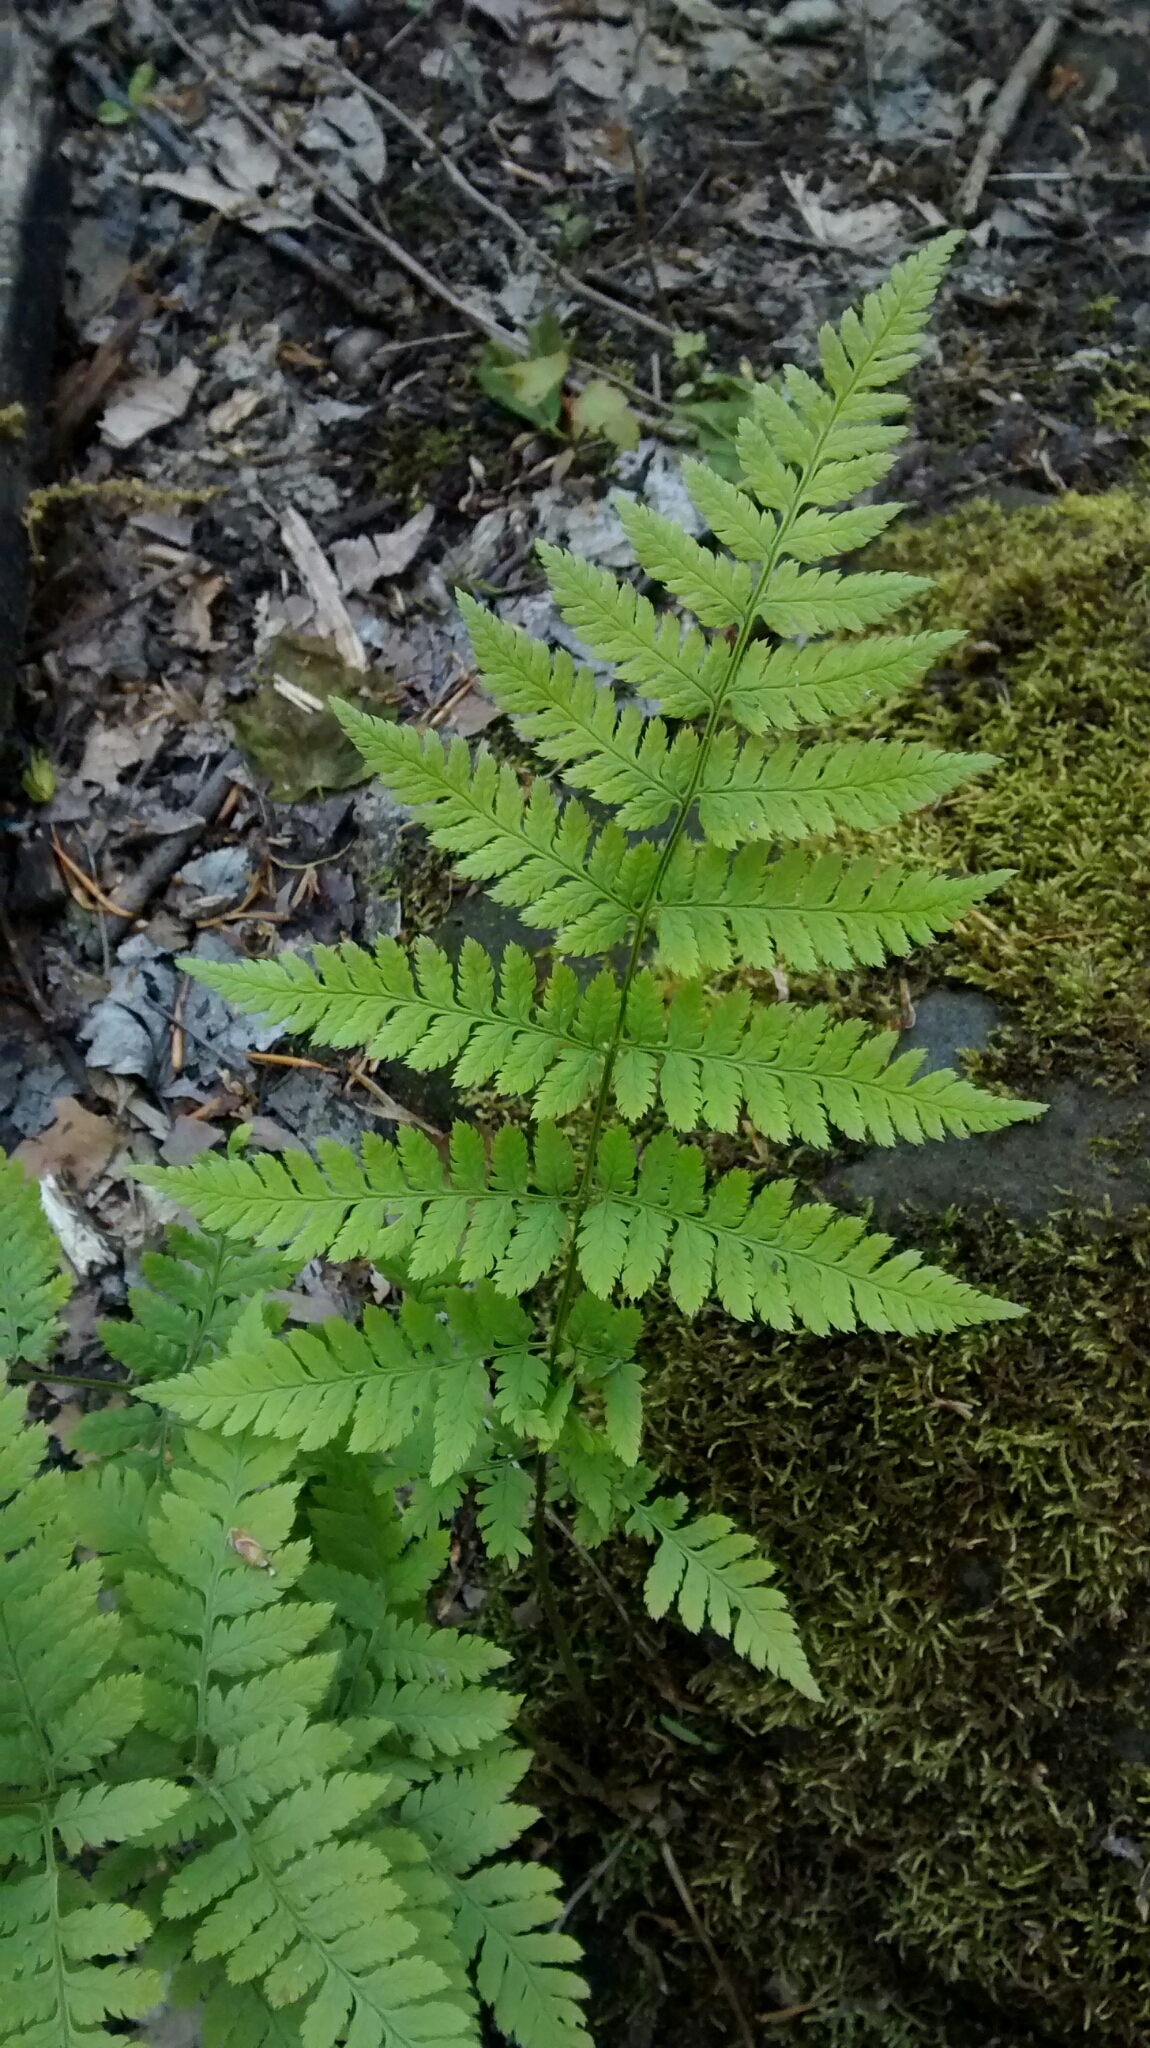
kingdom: Plantae
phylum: Tracheophyta
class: Polypodiopsida
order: Polypodiales
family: Dryopteridaceae
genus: Dryopteris
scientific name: Dryopteris carthusiana
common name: Narrow buckler-fern
